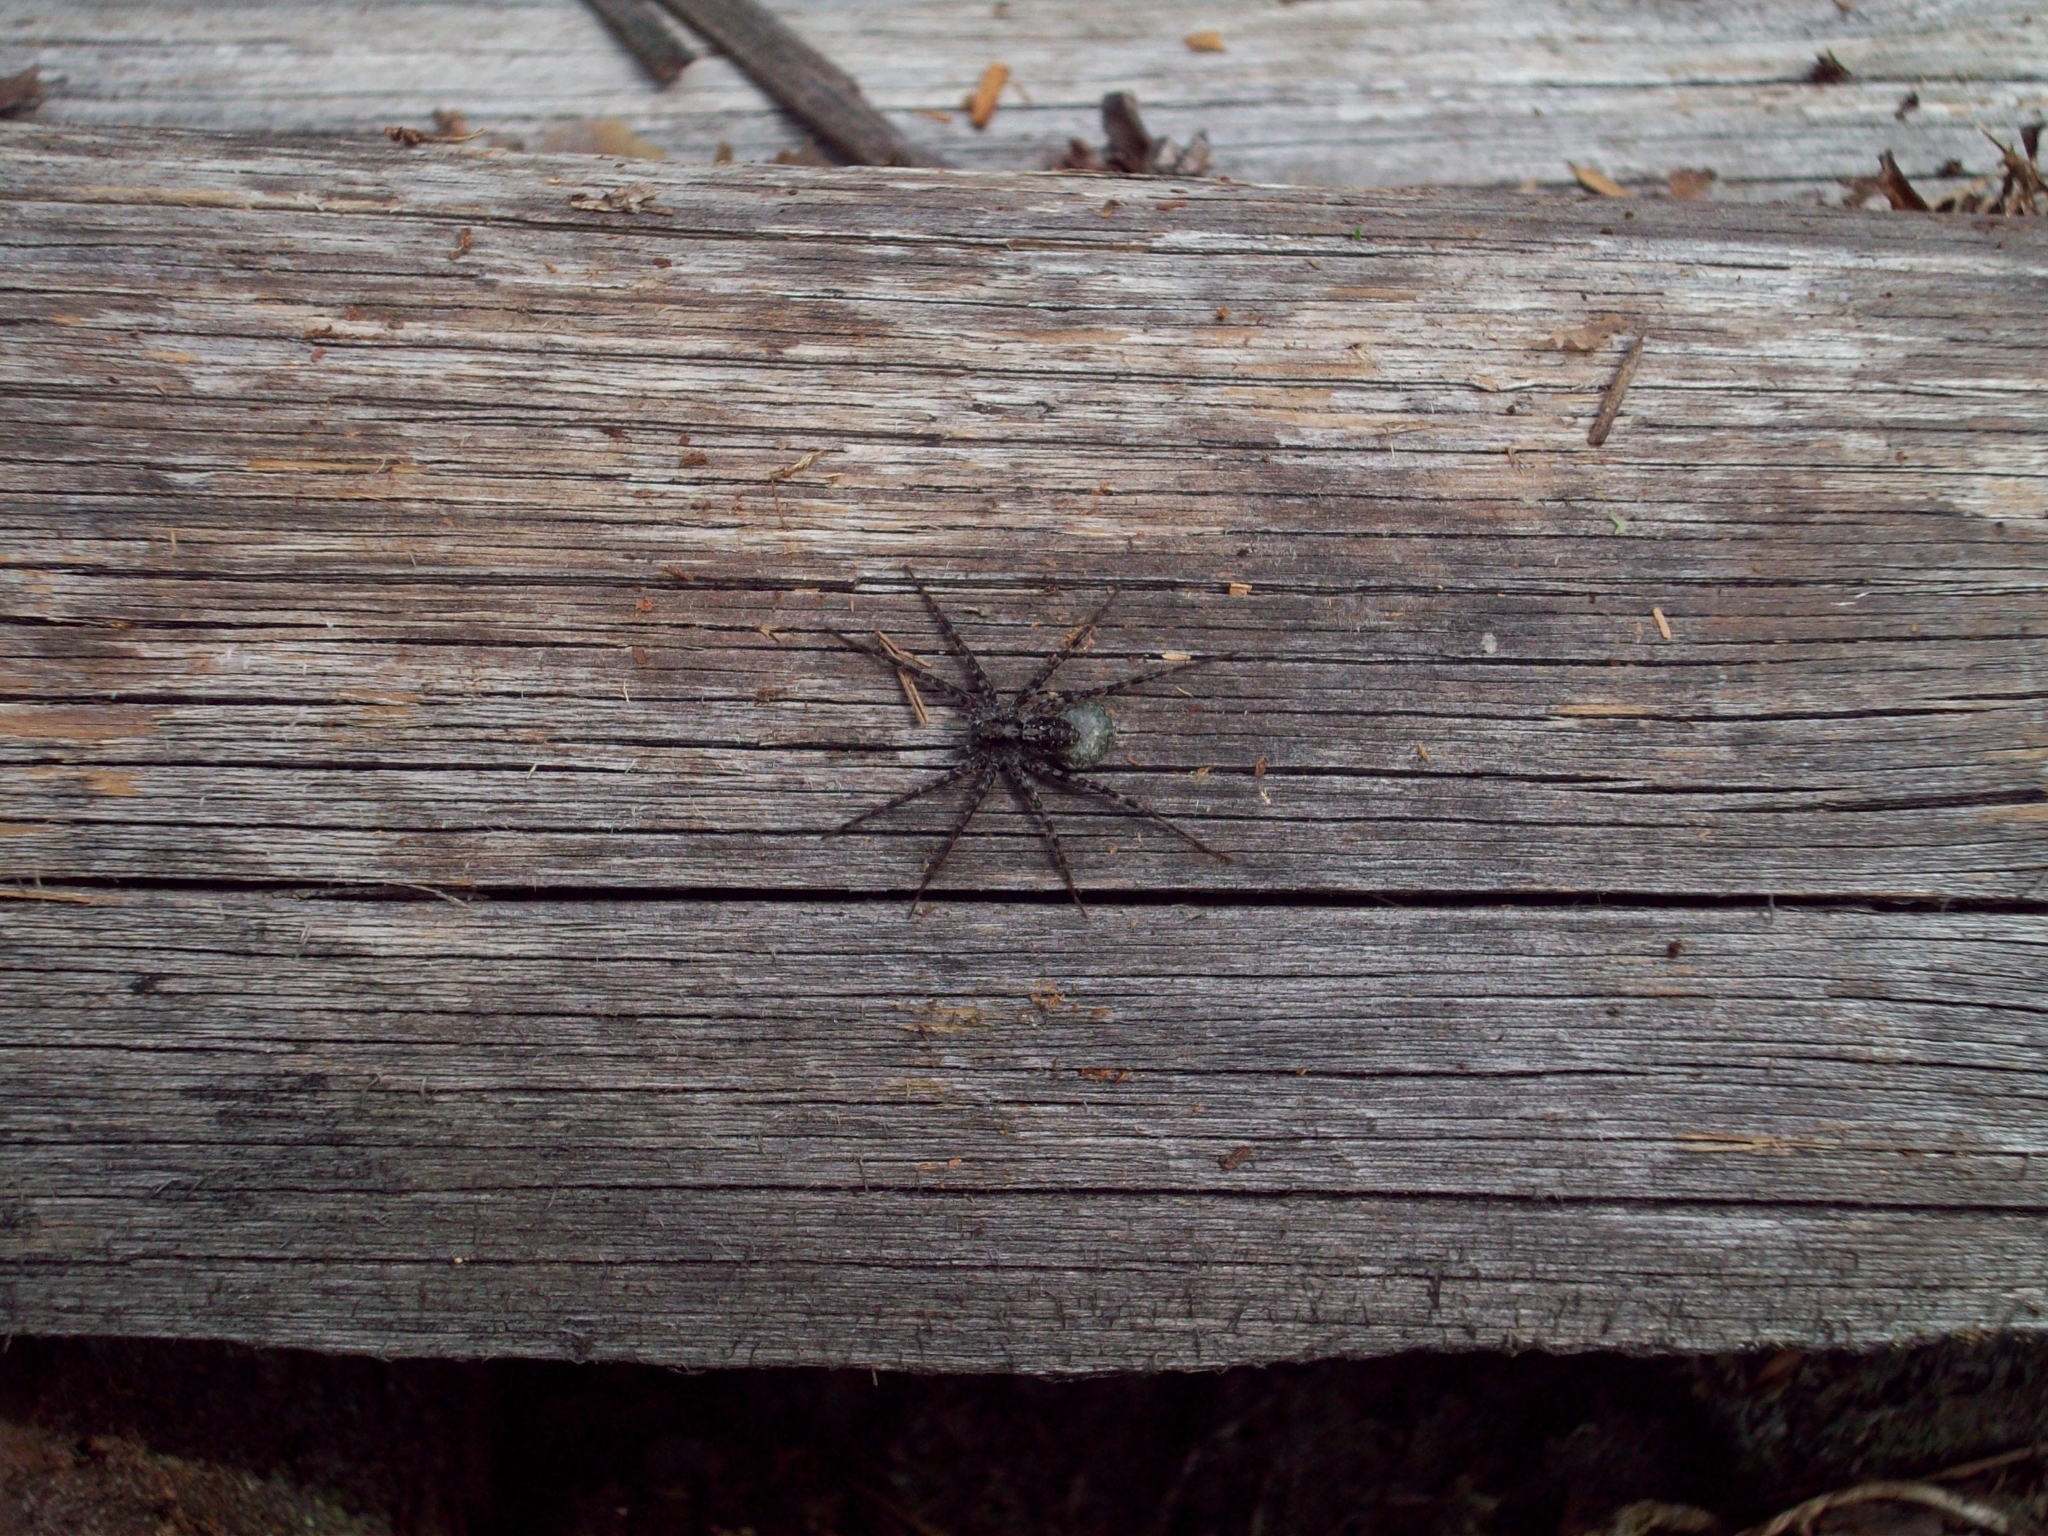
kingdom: Animalia
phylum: Arthropoda
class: Arachnida
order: Araneae
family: Lycosidae
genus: Acantholycosa
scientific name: Acantholycosa lignaria
